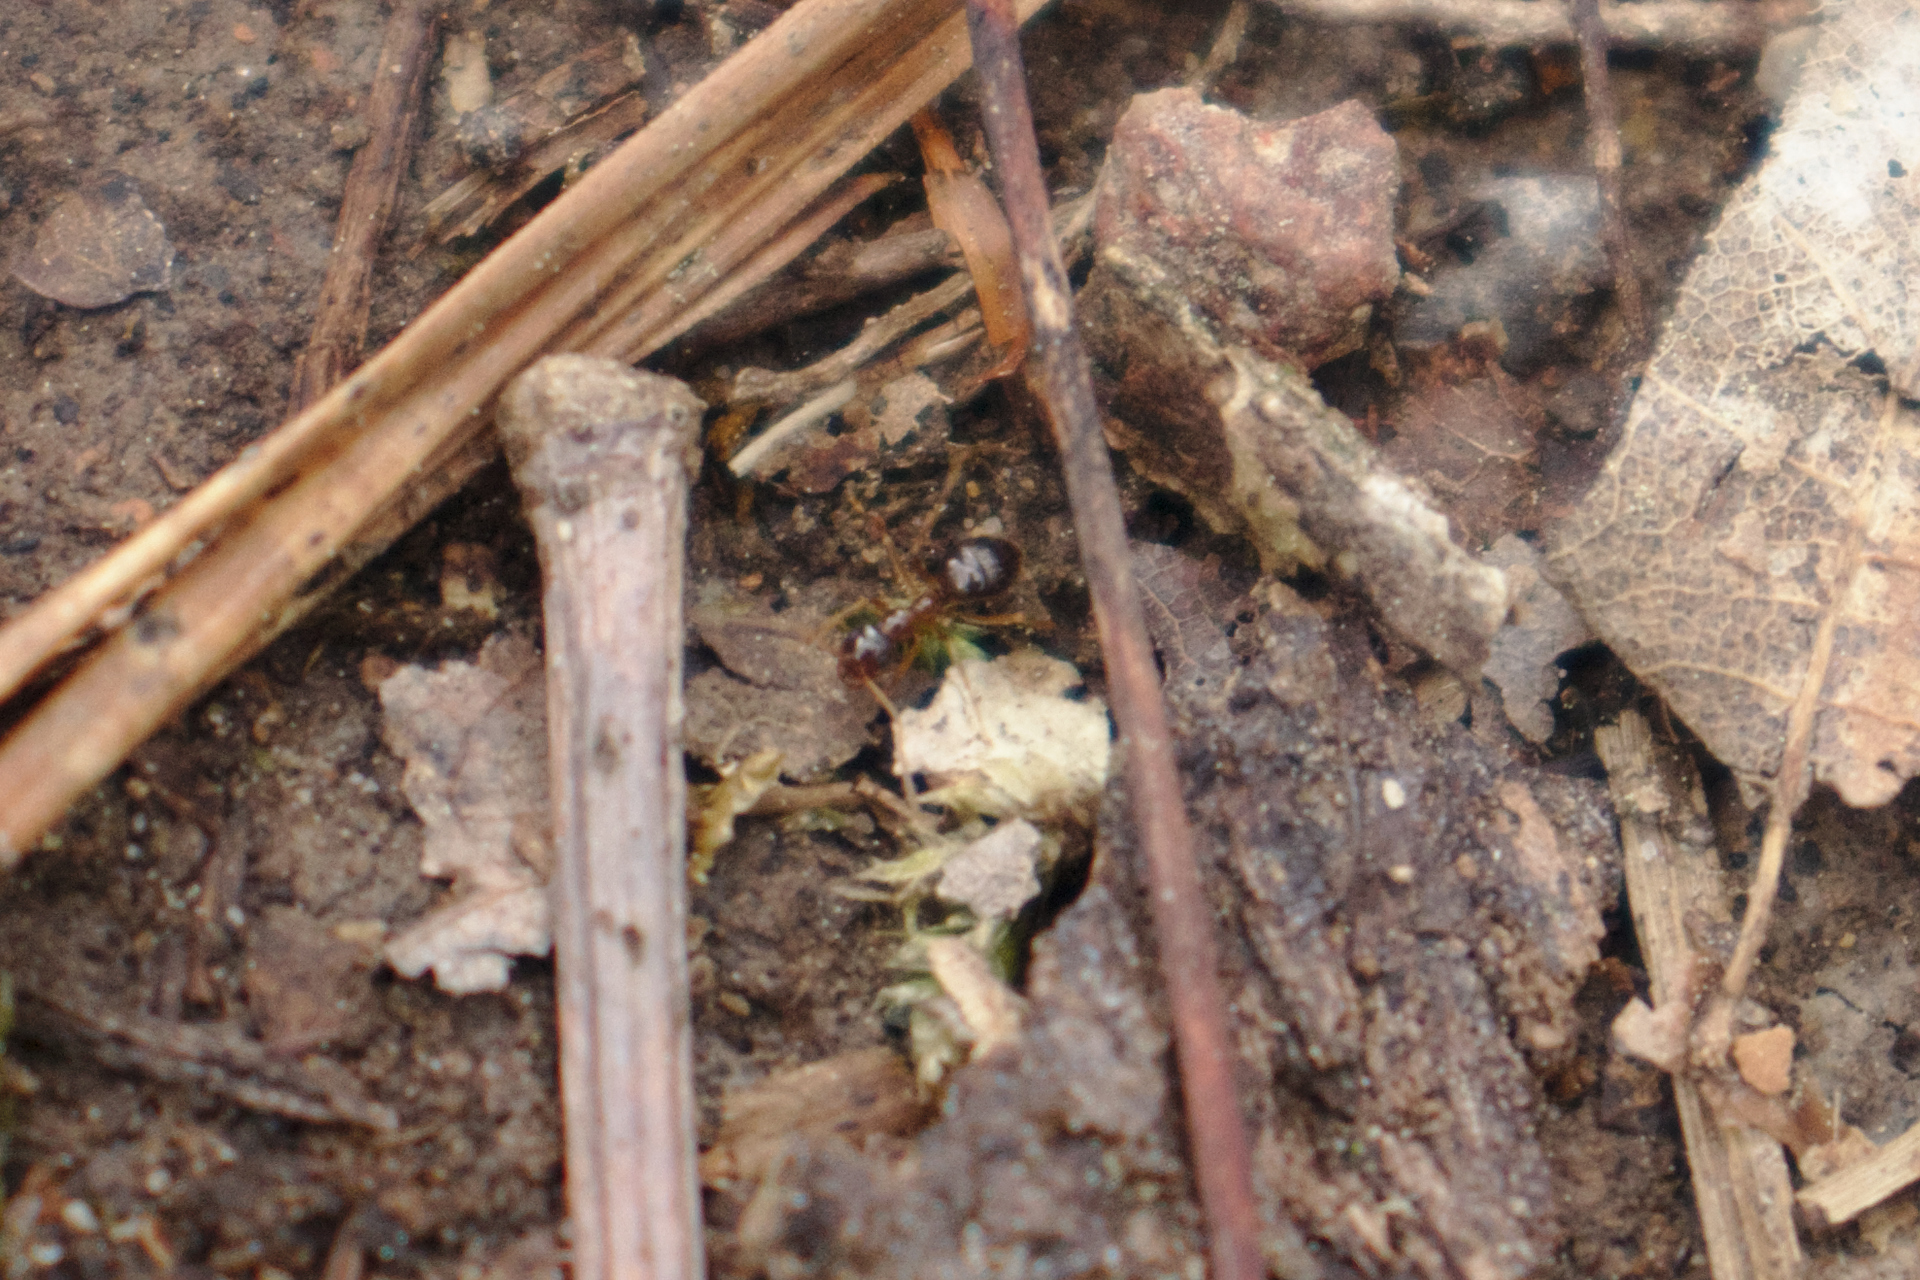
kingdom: Animalia
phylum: Arthropoda
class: Insecta
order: Hymenoptera
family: Formicidae
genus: Prenolepis
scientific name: Prenolepis imparis
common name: Small honey ant
